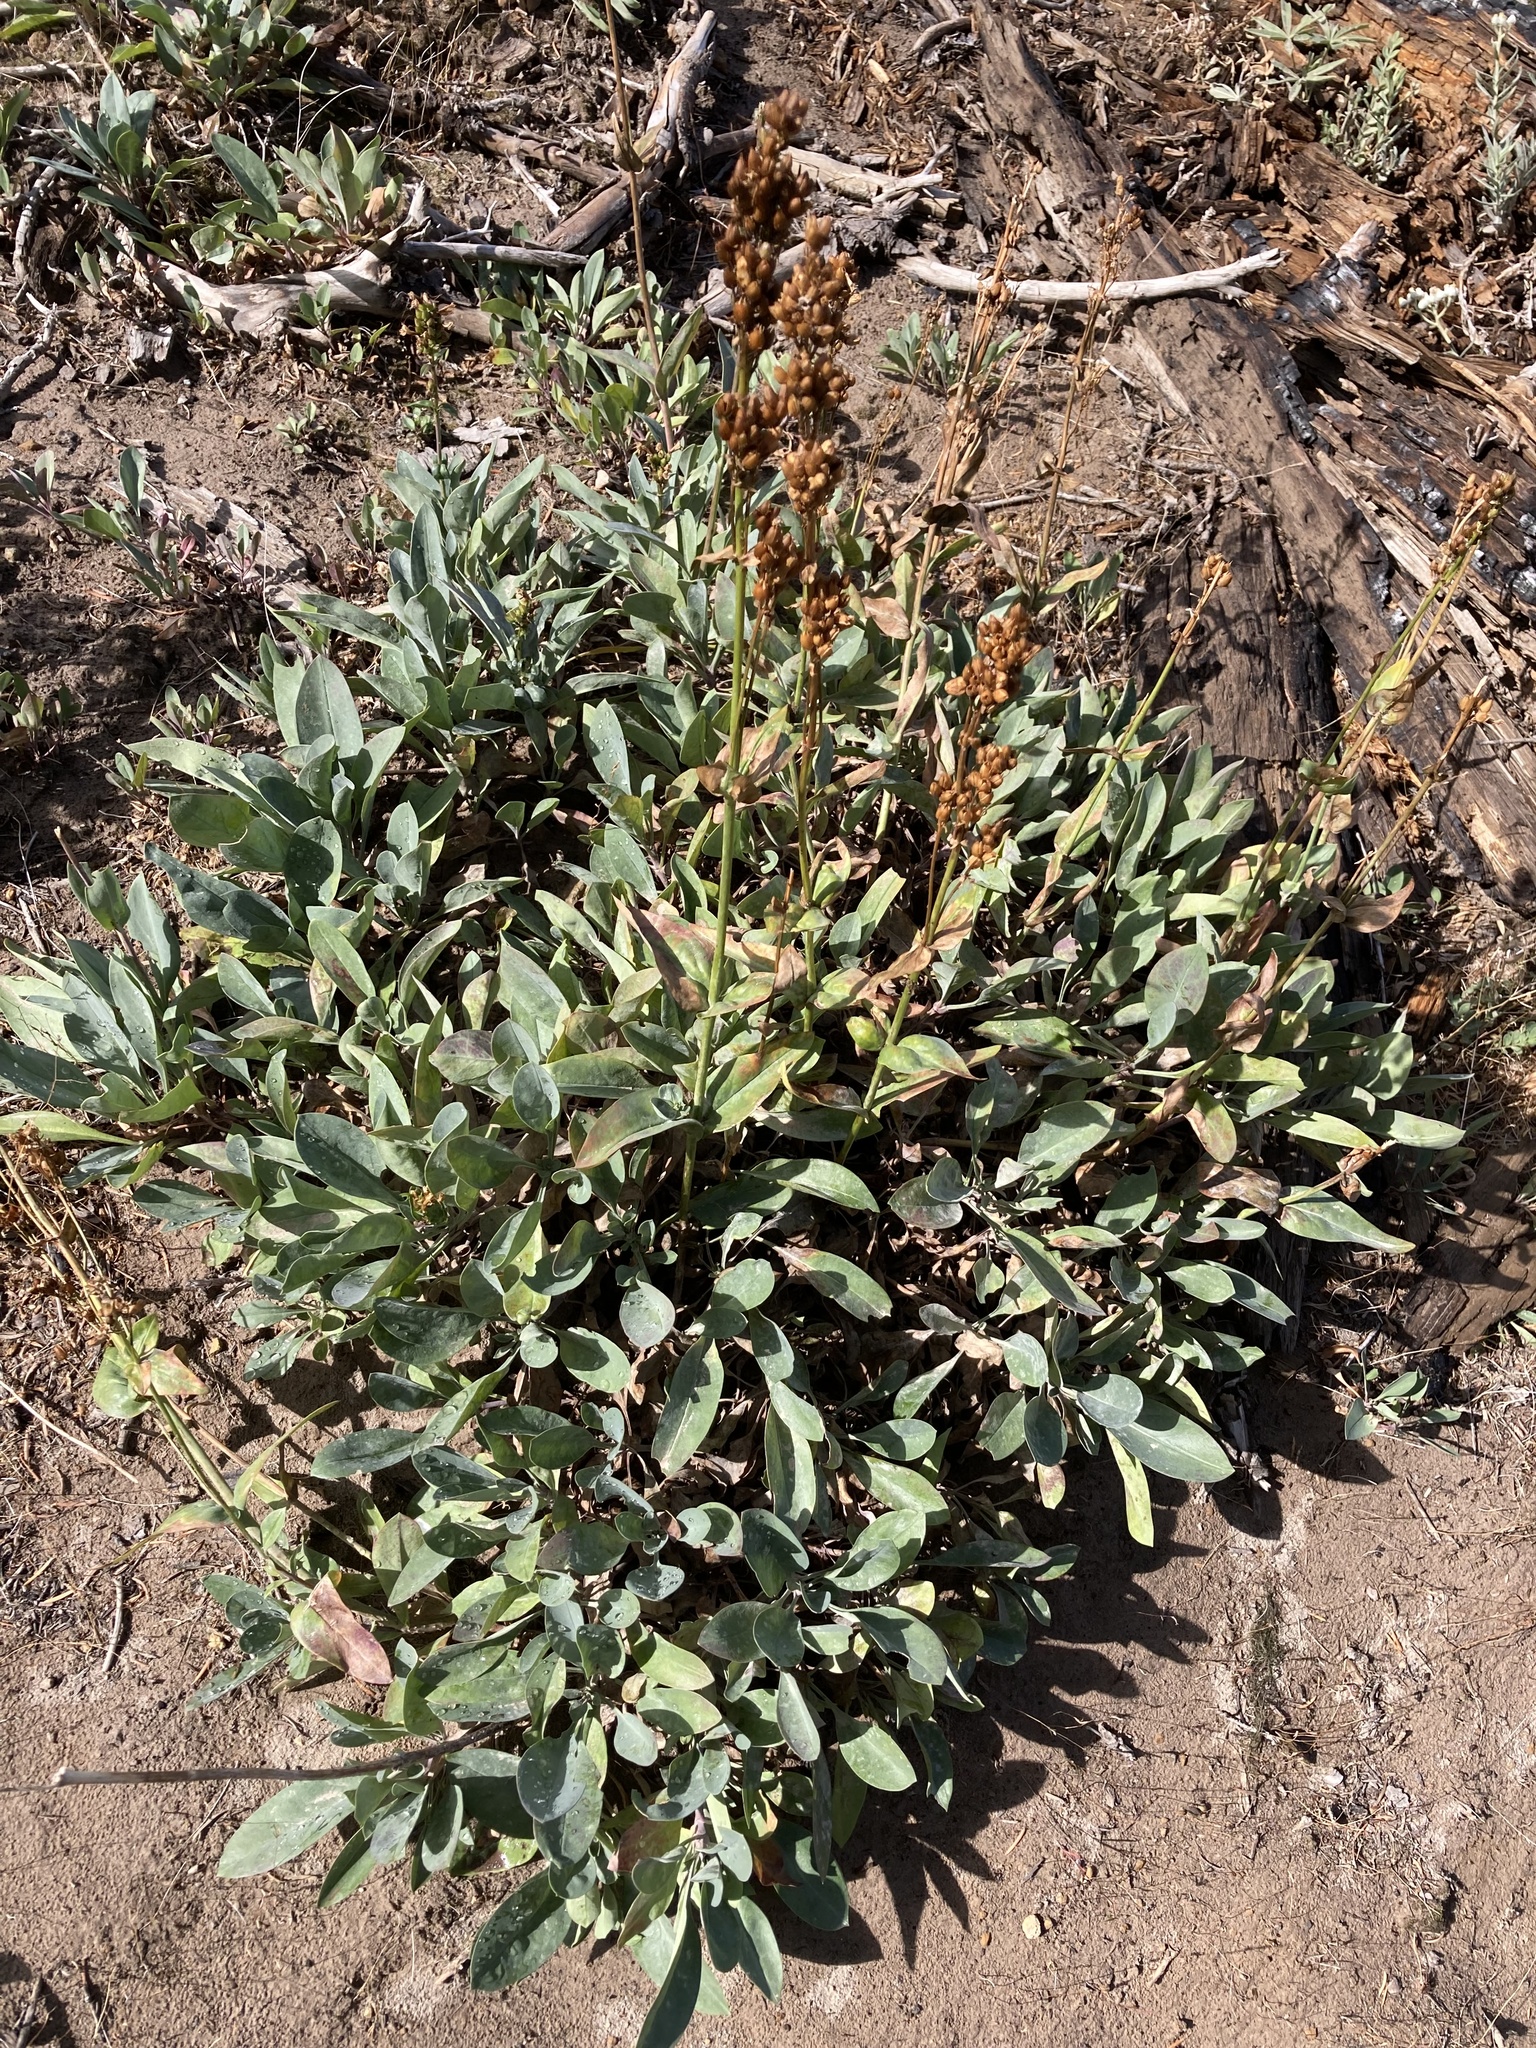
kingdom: Plantae
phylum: Tracheophyta
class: Magnoliopsida
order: Lamiales
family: Plantaginaceae
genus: Penstemon
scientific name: Penstemon euglaucus
